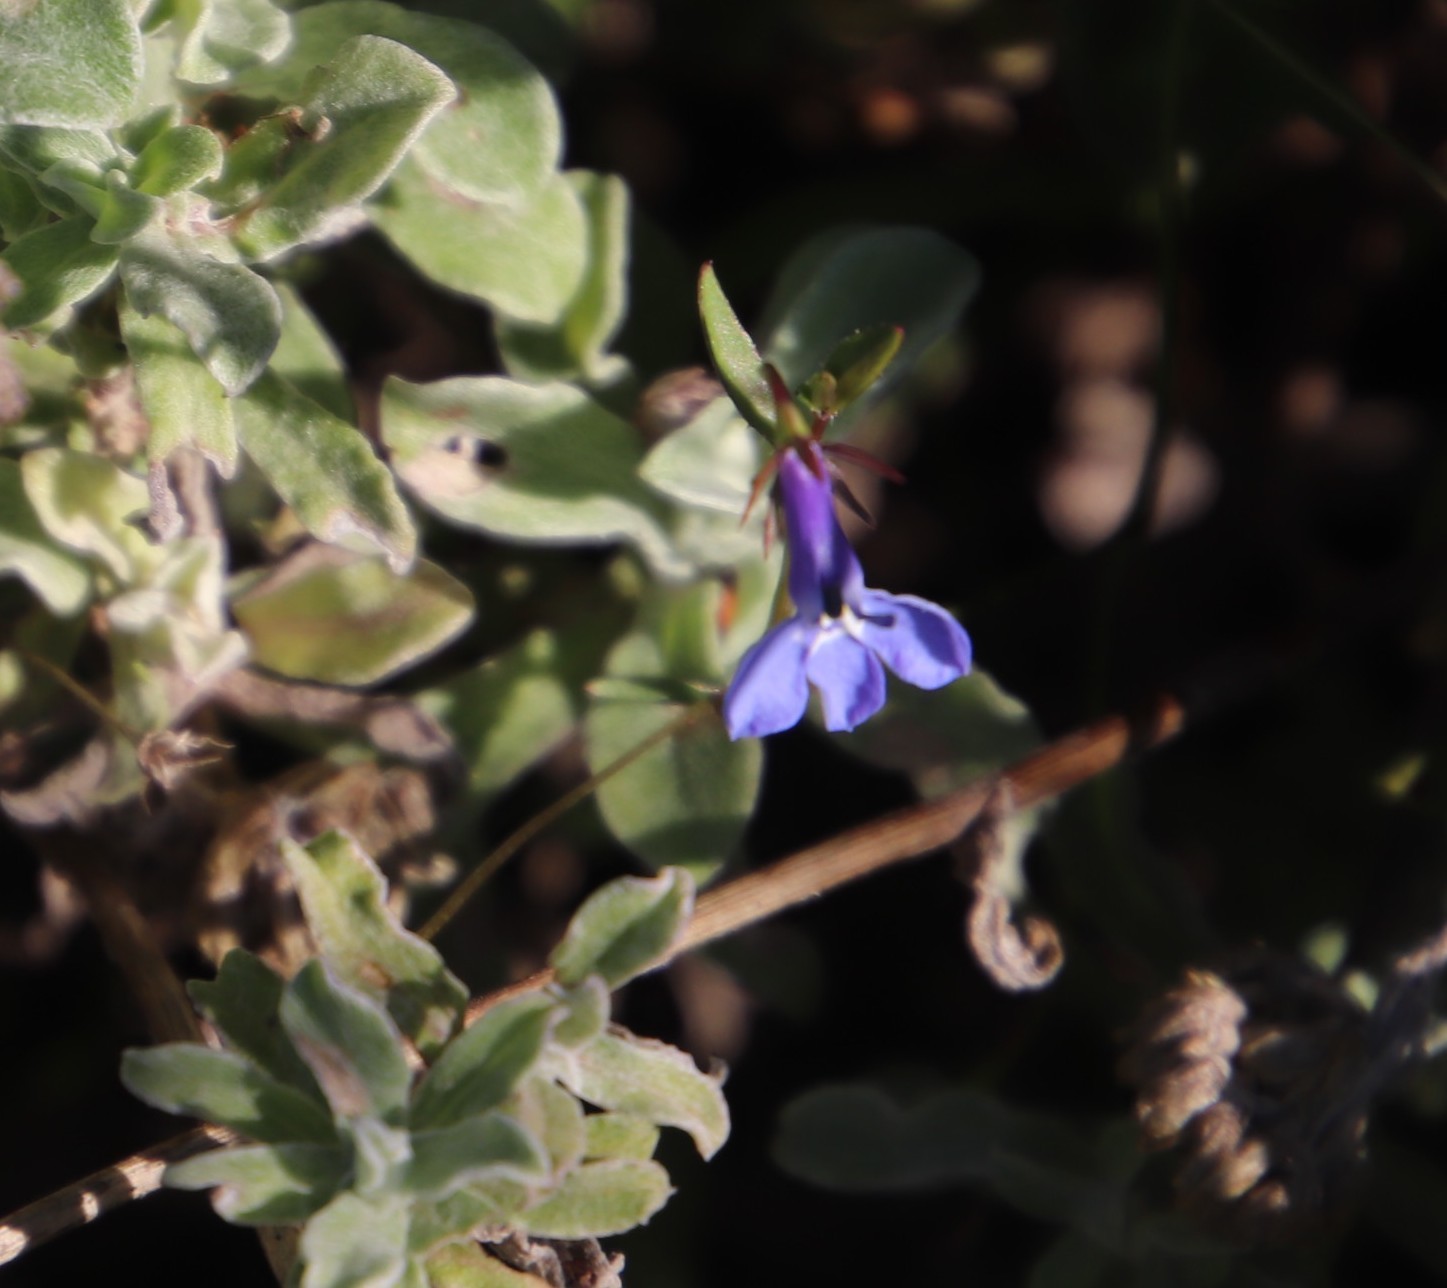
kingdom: Plantae
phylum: Tracheophyta
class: Magnoliopsida
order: Asterales
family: Campanulaceae
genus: Lobelia
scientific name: Lobelia erinus
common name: Edging lobelia
